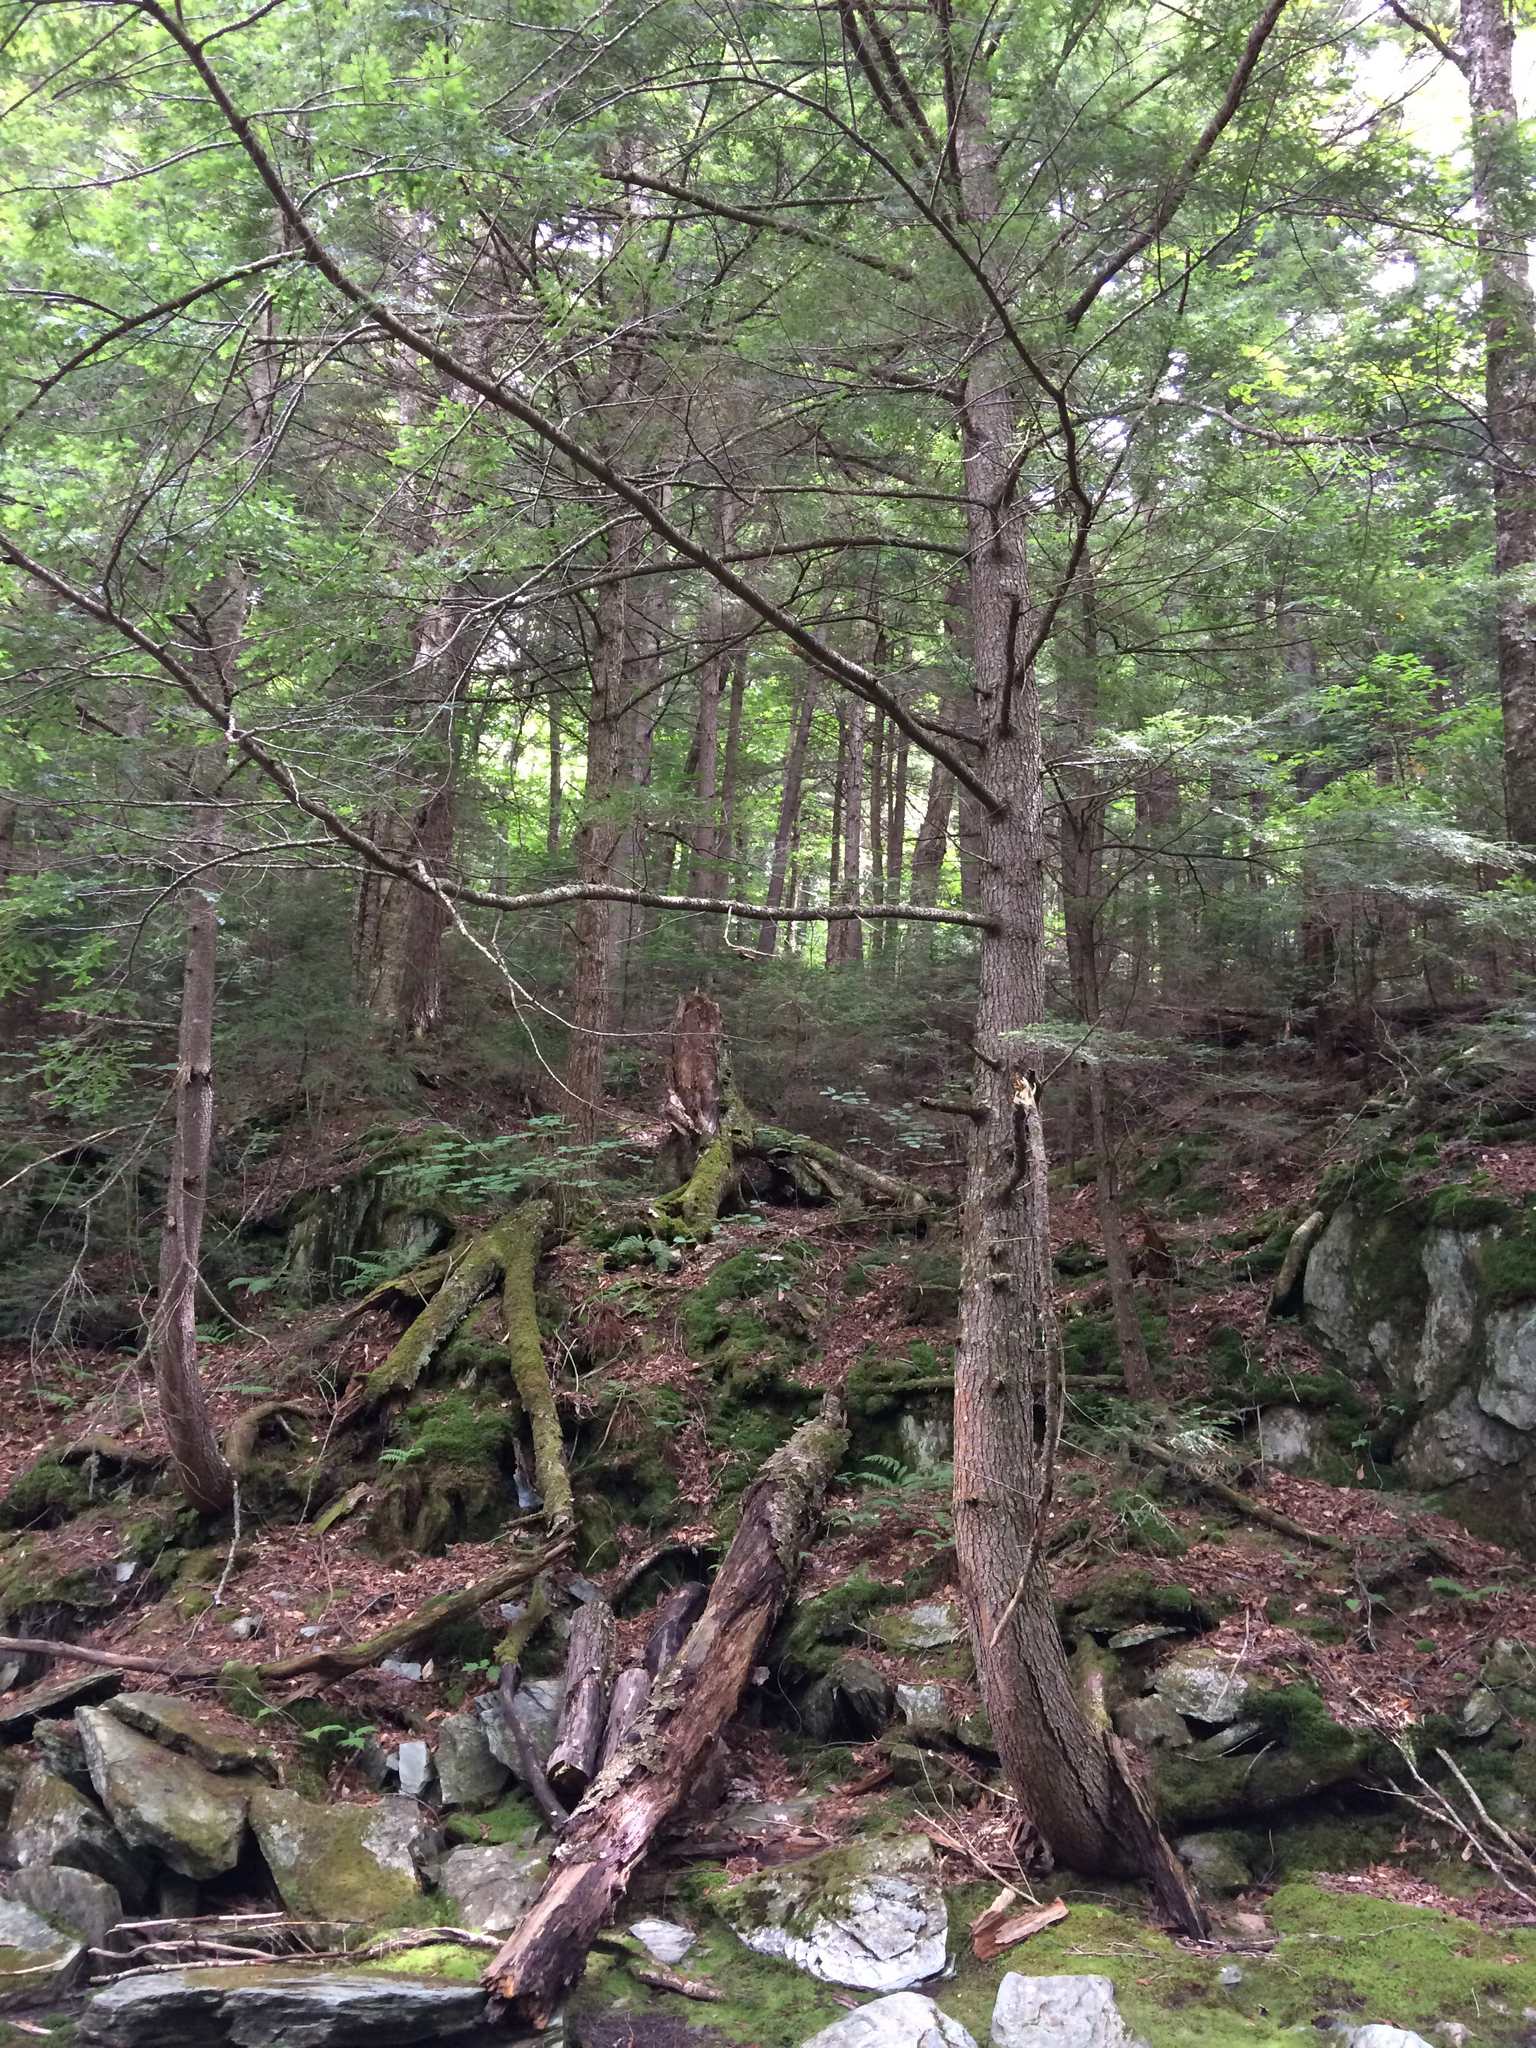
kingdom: Plantae
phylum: Tracheophyta
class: Pinopsida
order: Pinales
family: Pinaceae
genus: Tsuga
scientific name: Tsuga canadensis
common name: Eastern hemlock
